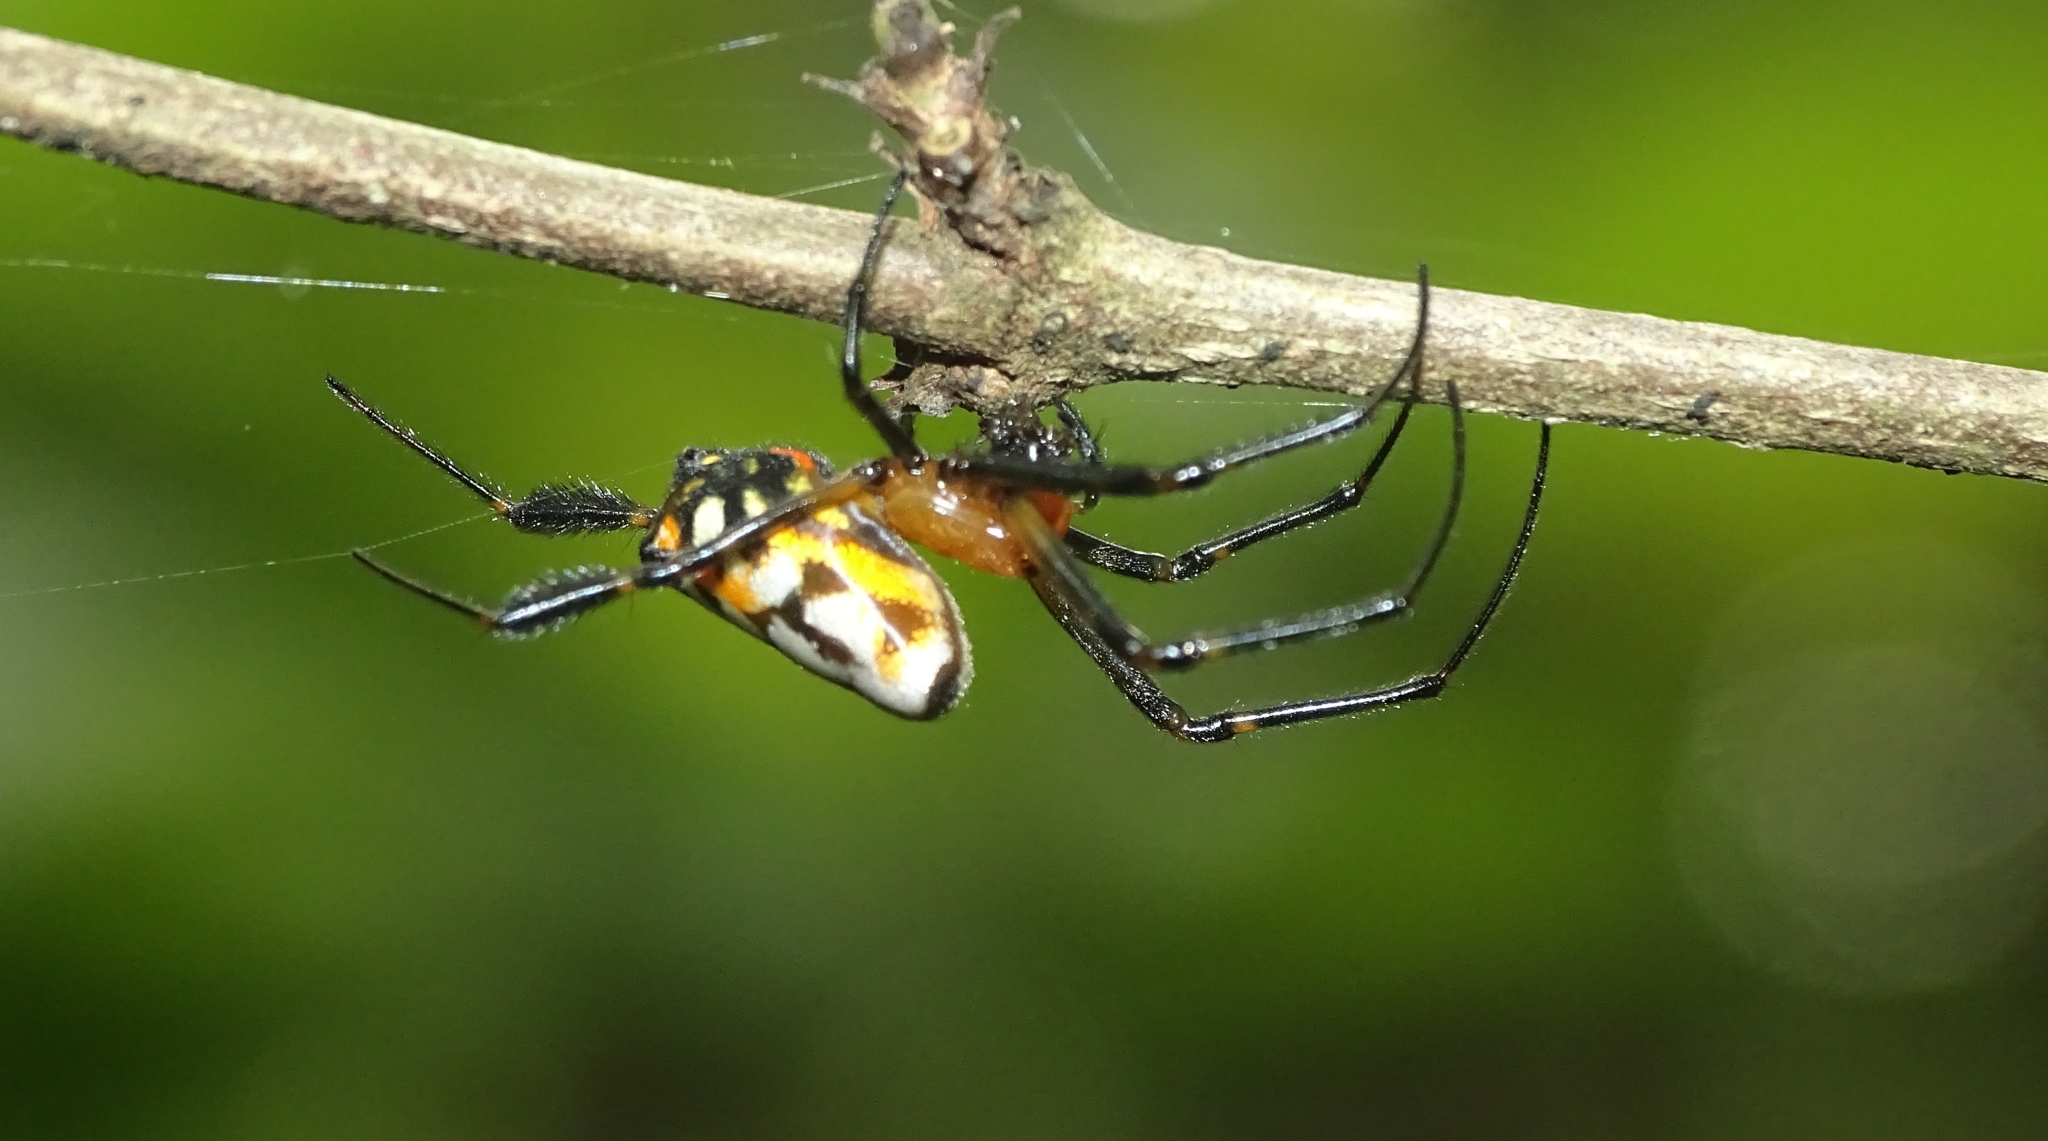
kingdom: Animalia
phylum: Arthropoda
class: Arachnida
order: Araneae
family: Tetragnathidae
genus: Leucauge
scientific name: Leucauge fastigata
